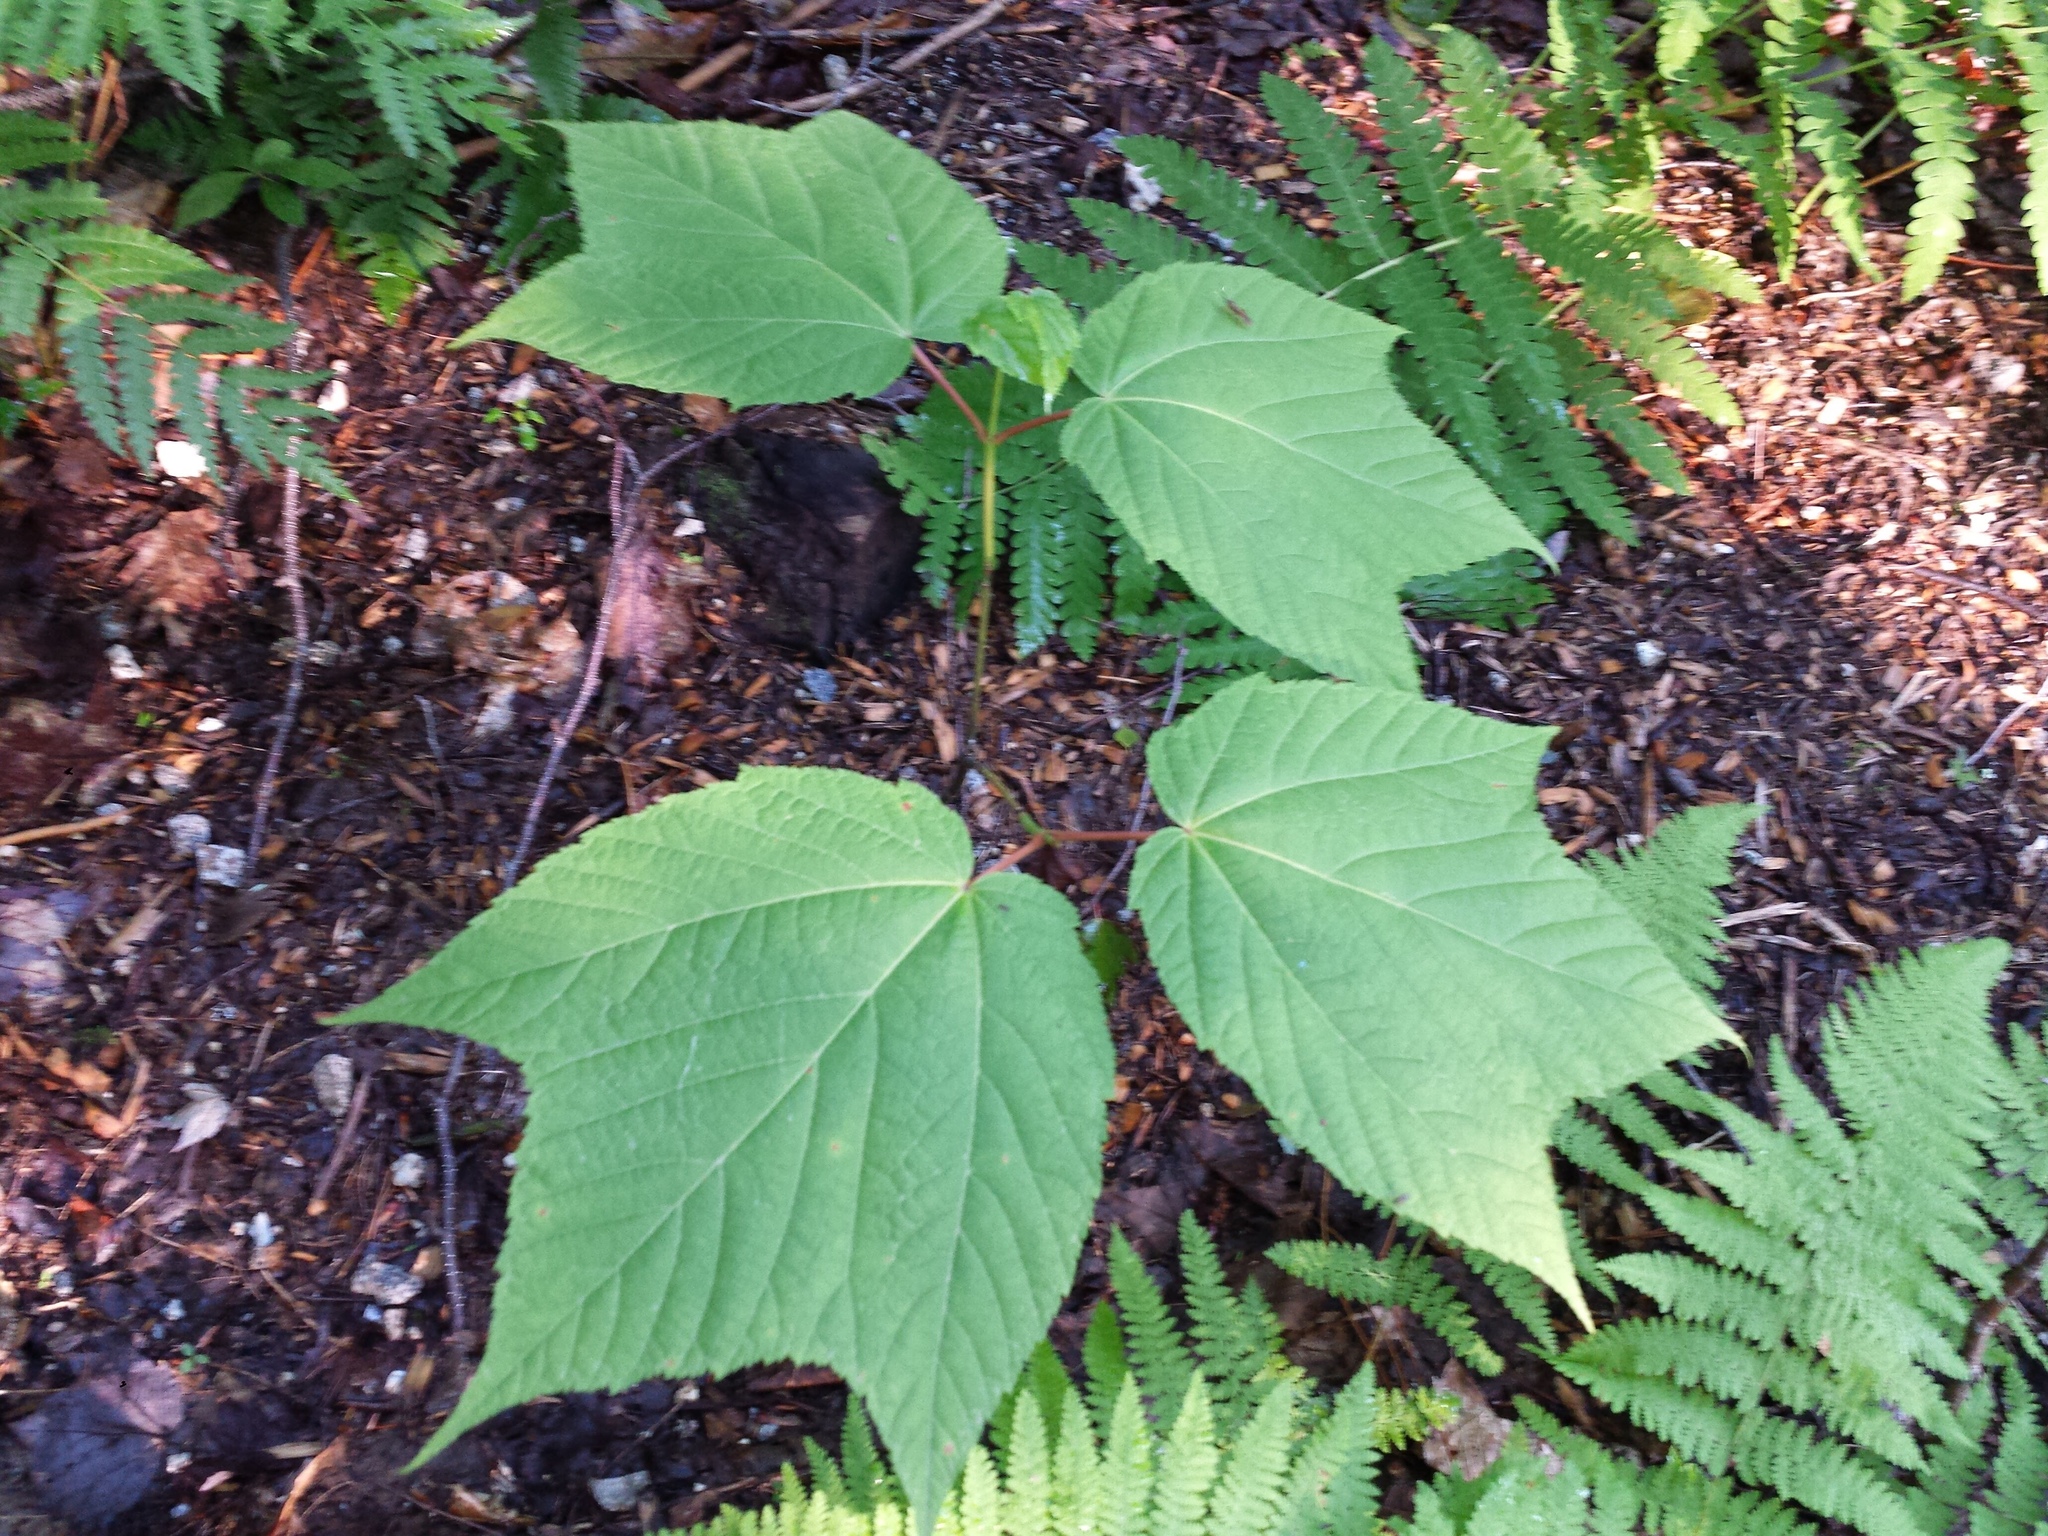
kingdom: Plantae
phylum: Tracheophyta
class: Magnoliopsida
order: Sapindales
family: Sapindaceae
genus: Acer
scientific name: Acer pensylvanicum
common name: Moosewood
